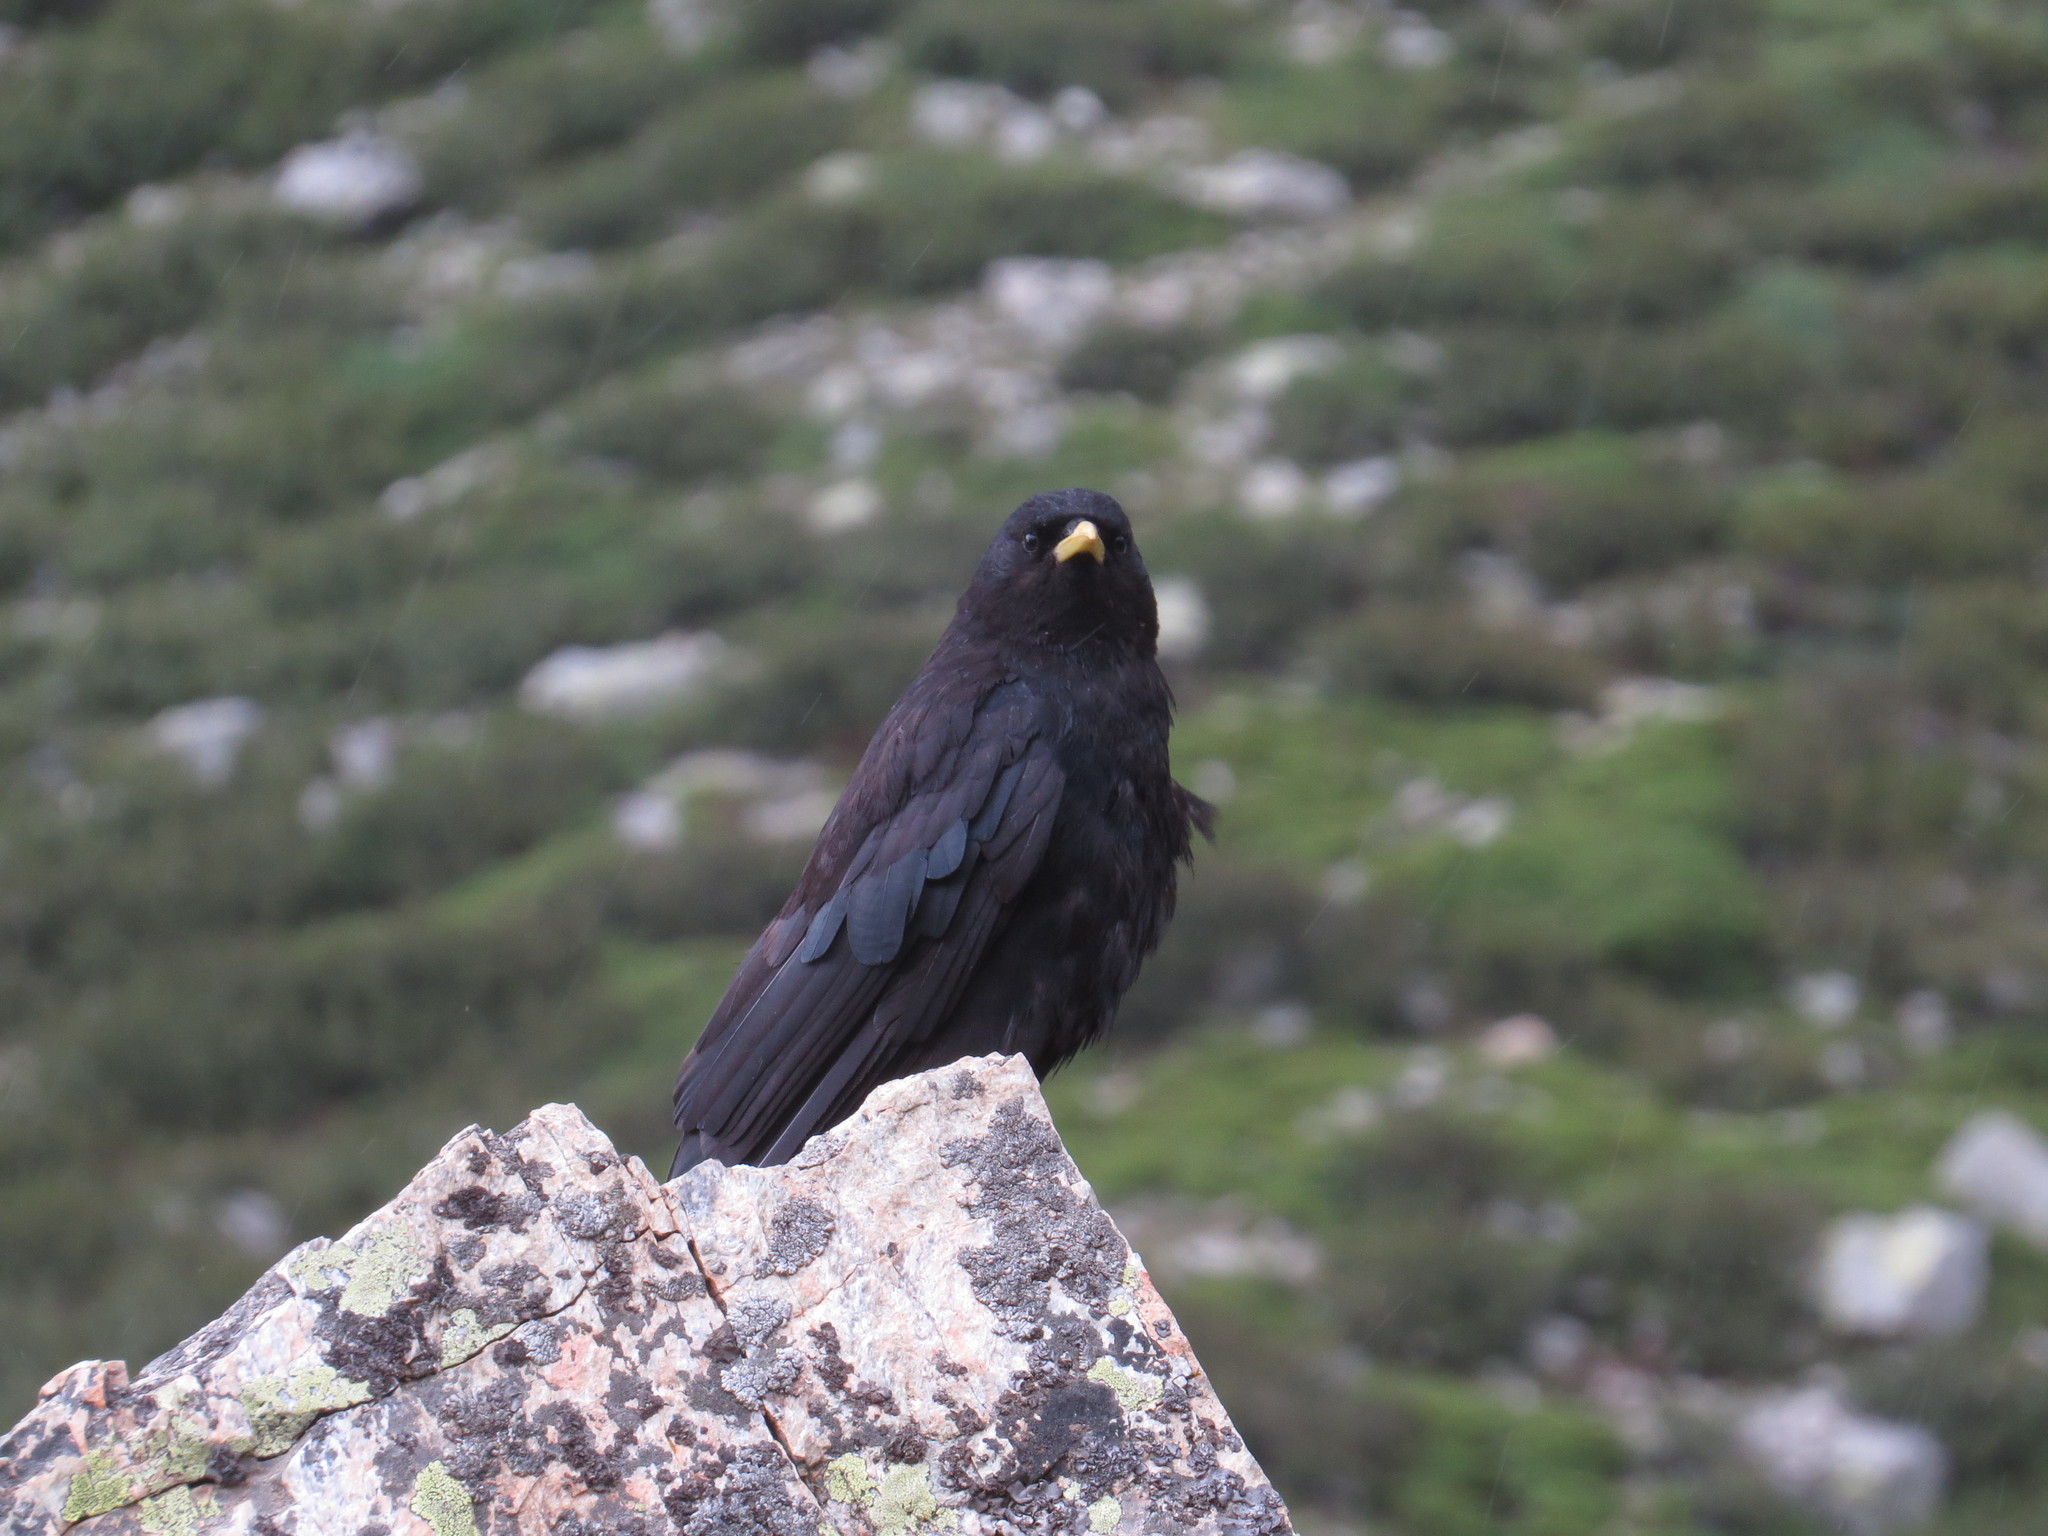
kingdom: Animalia
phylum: Chordata
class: Aves
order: Passeriformes
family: Corvidae
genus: Pyrrhocorax
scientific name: Pyrrhocorax graculus
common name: Alpine chough
